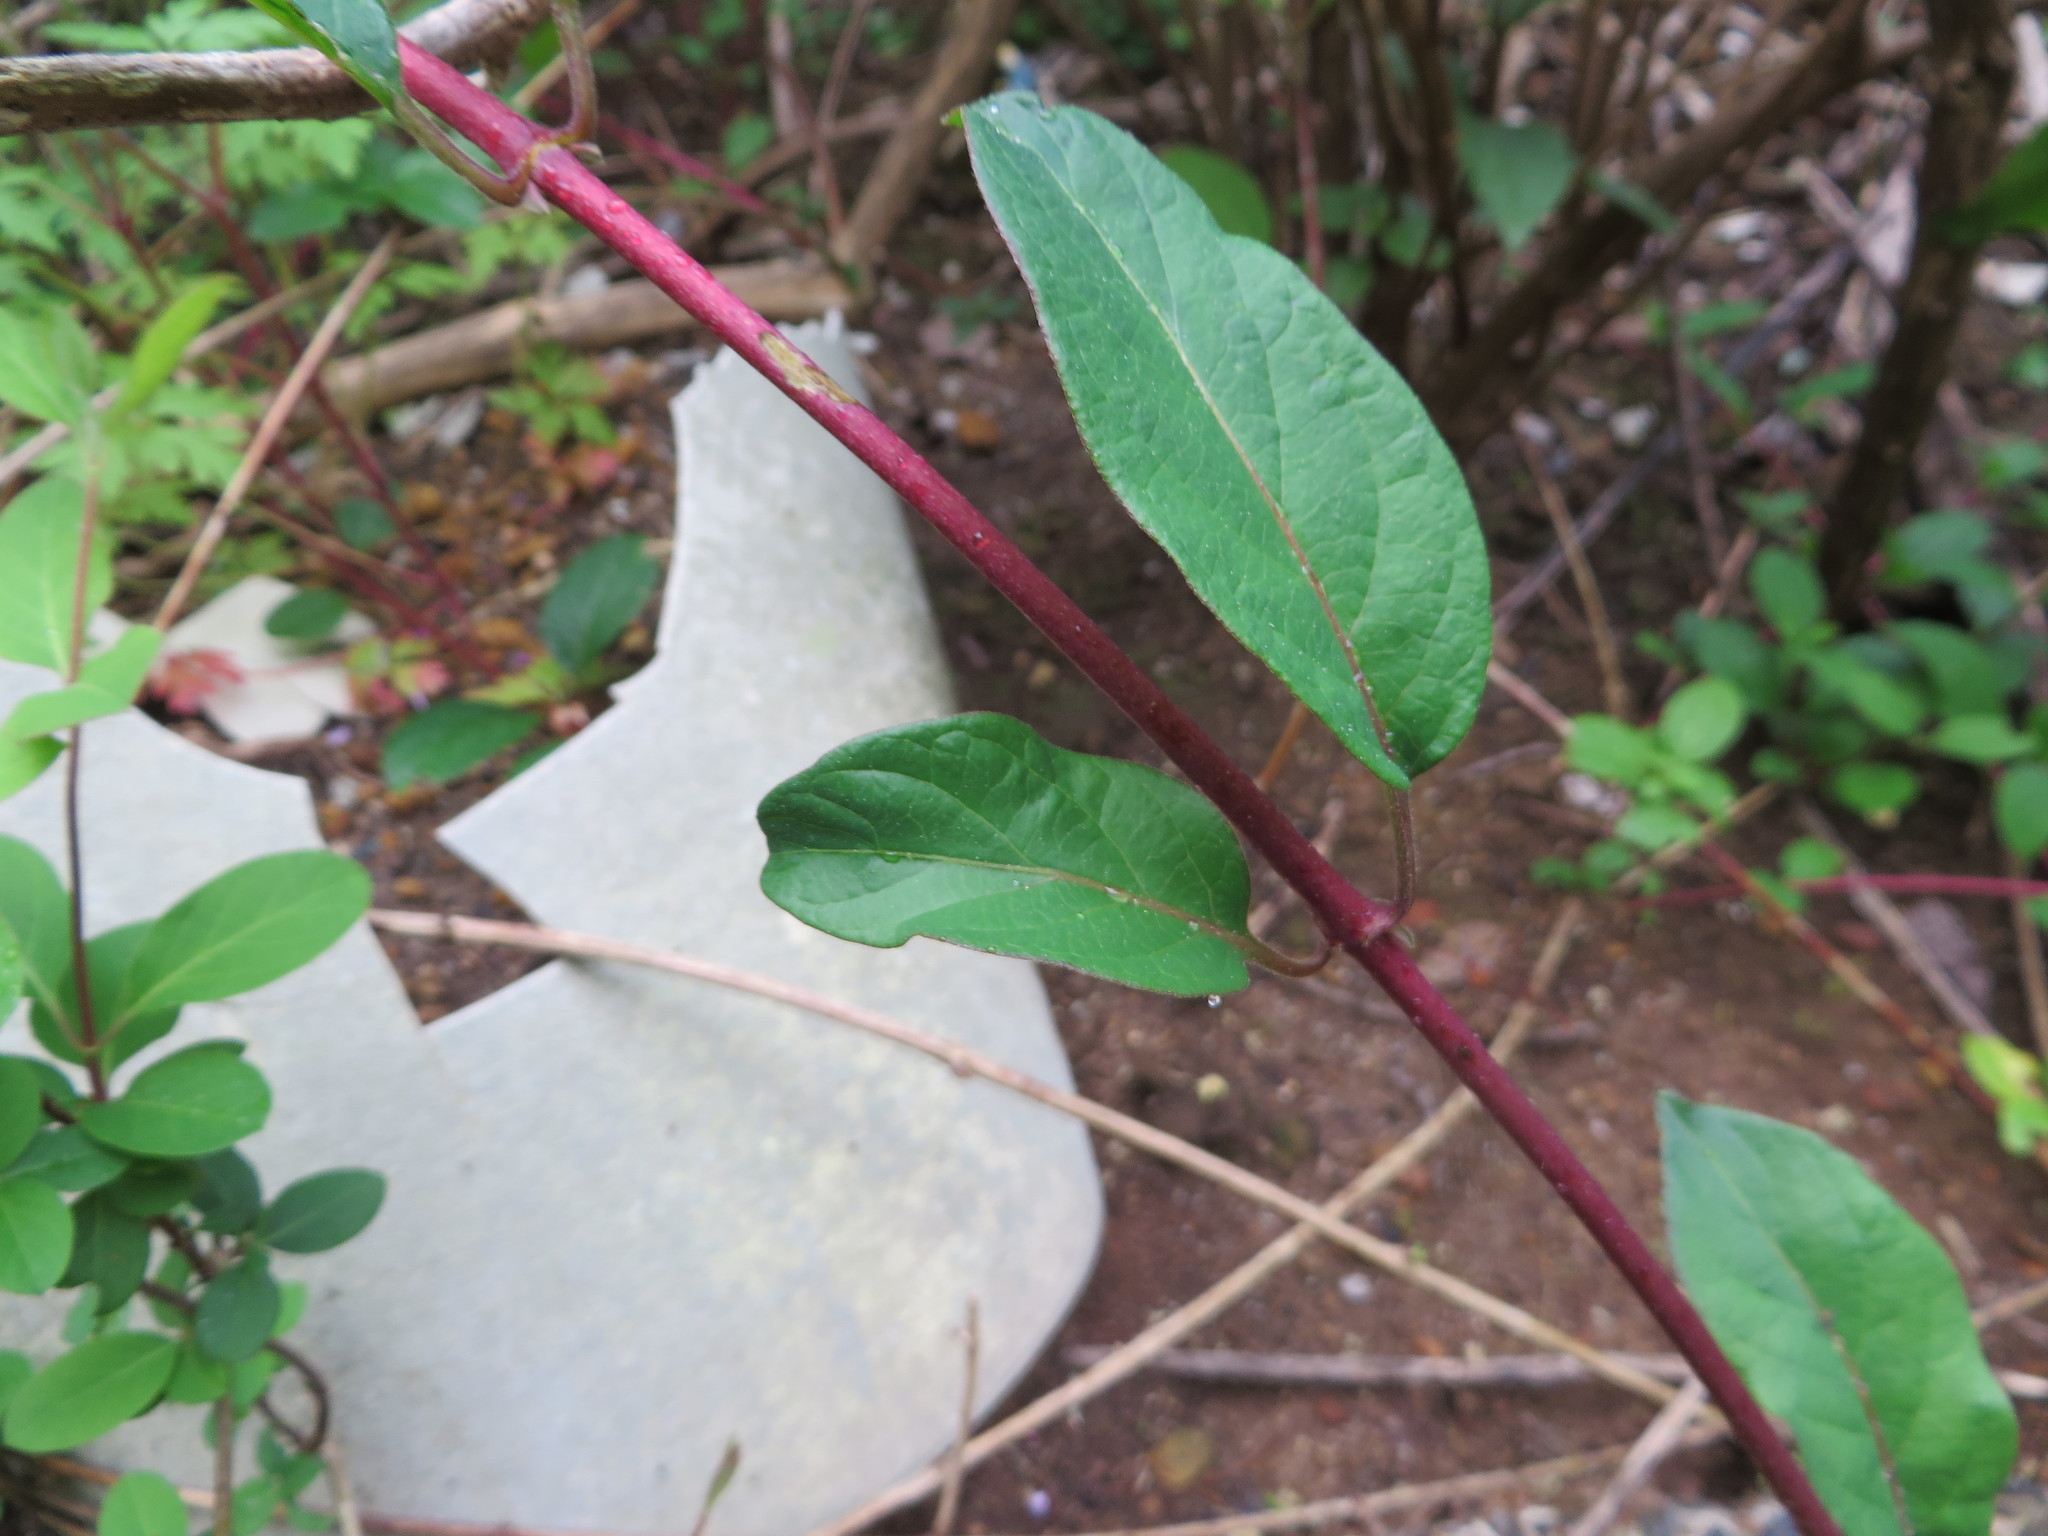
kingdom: Plantae
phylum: Tracheophyta
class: Magnoliopsida
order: Dipsacales
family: Caprifoliaceae
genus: Lonicera
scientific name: Lonicera japonica
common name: Japanese honeysuckle
